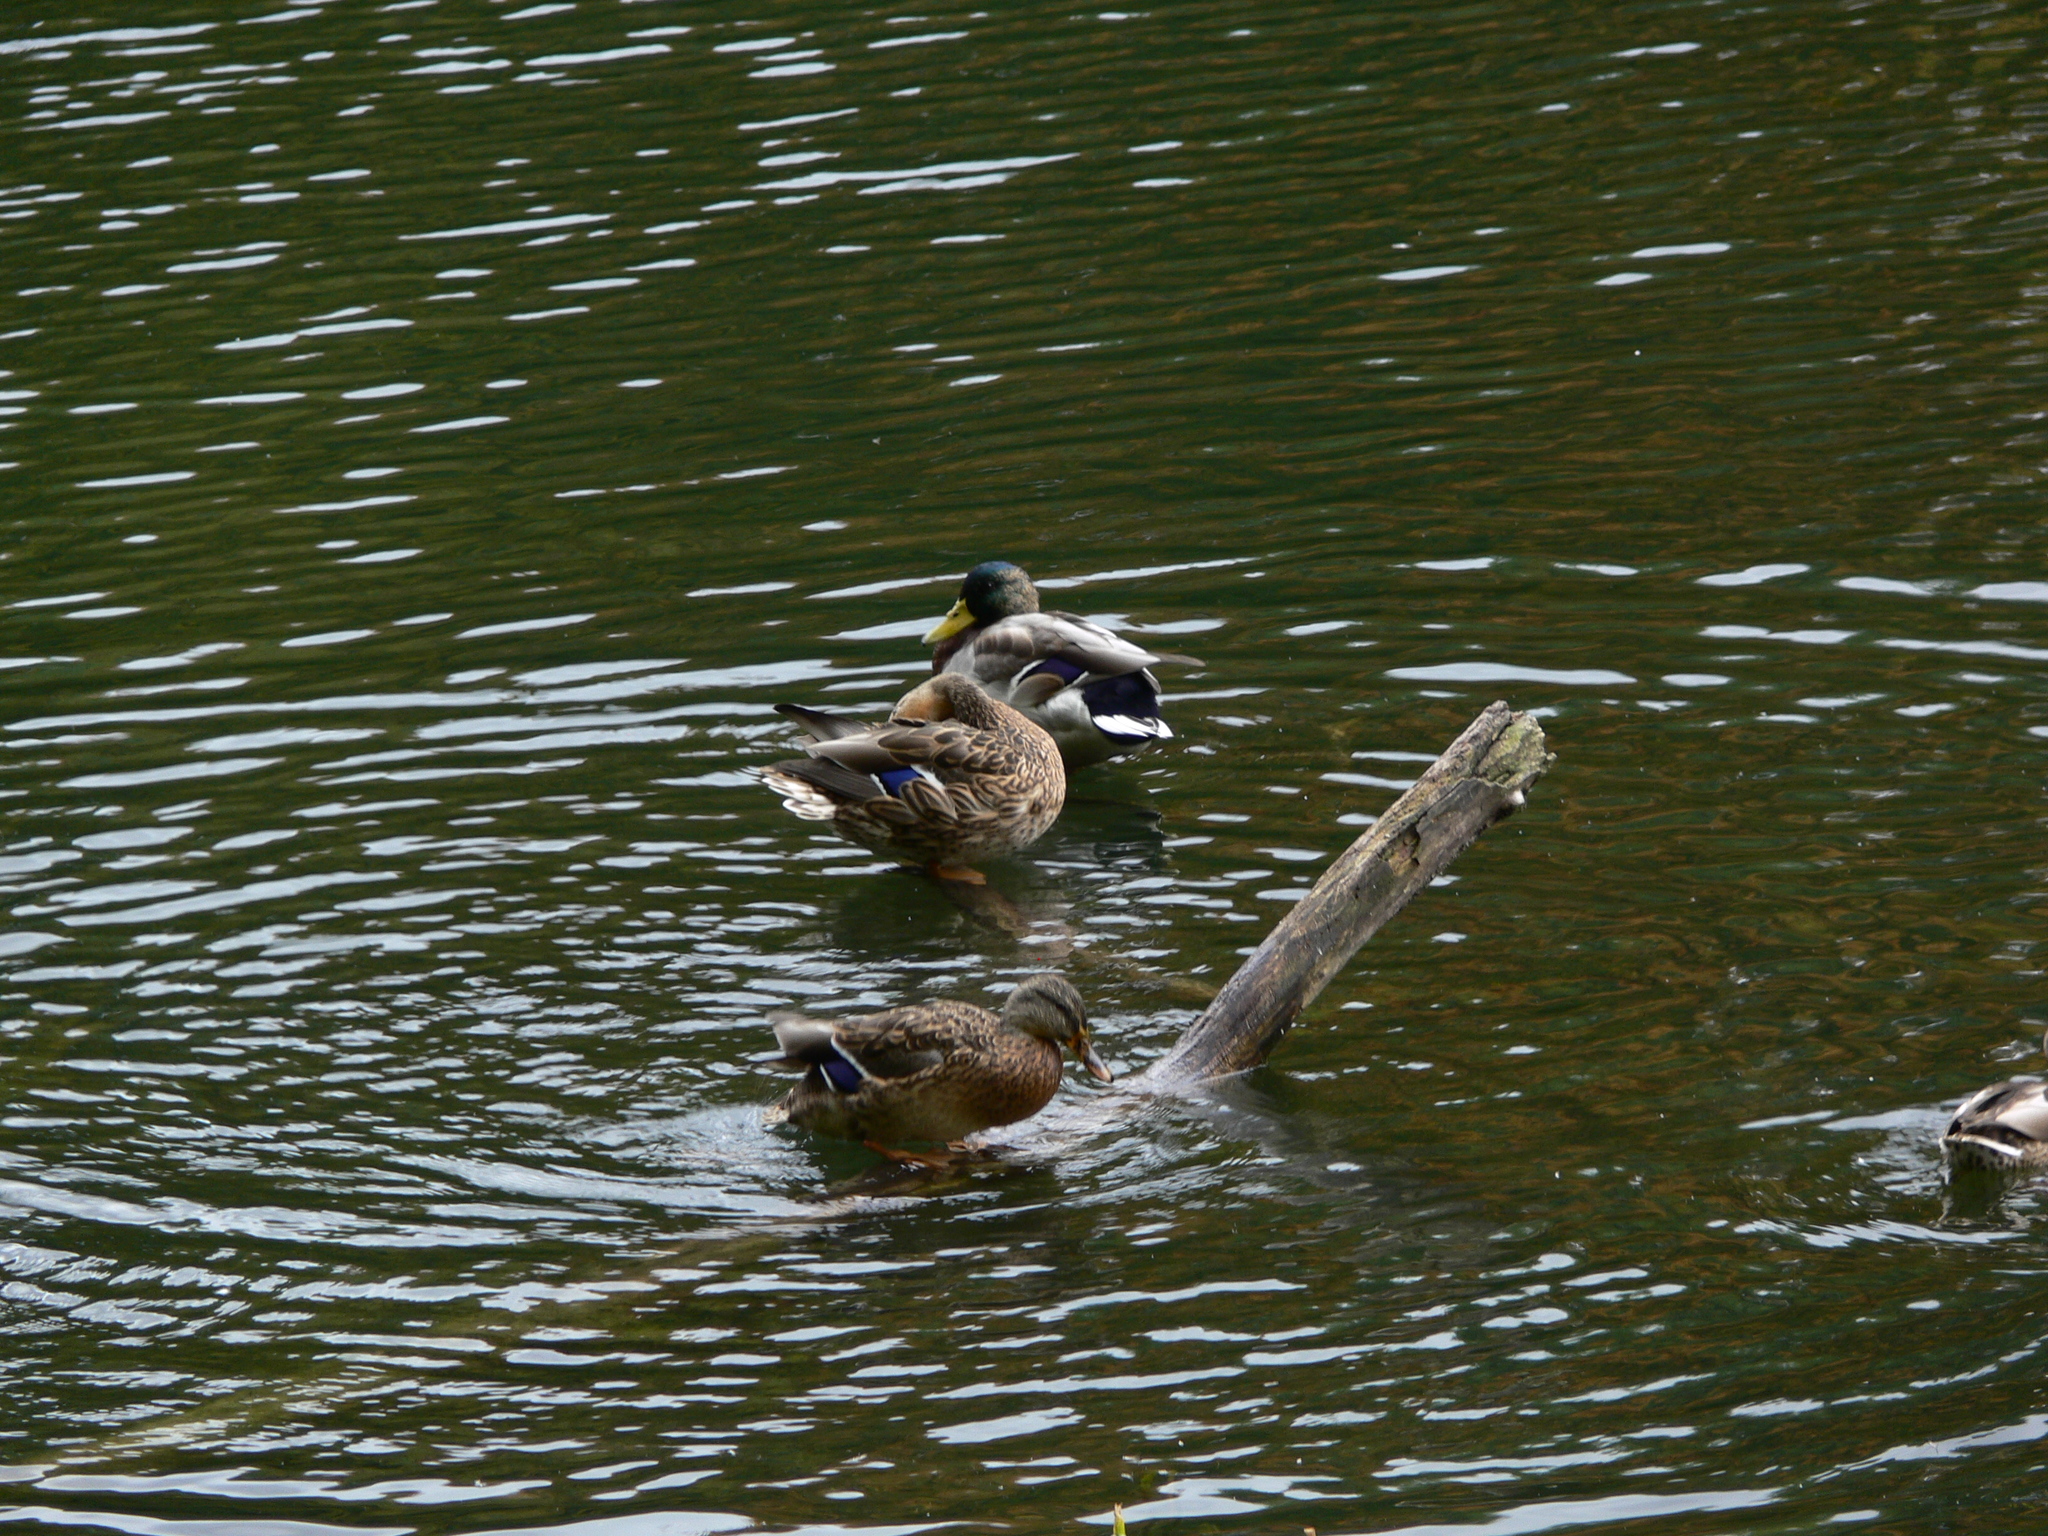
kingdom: Animalia
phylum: Chordata
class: Aves
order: Anseriformes
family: Anatidae
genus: Anas
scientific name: Anas platyrhynchos
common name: Mallard
